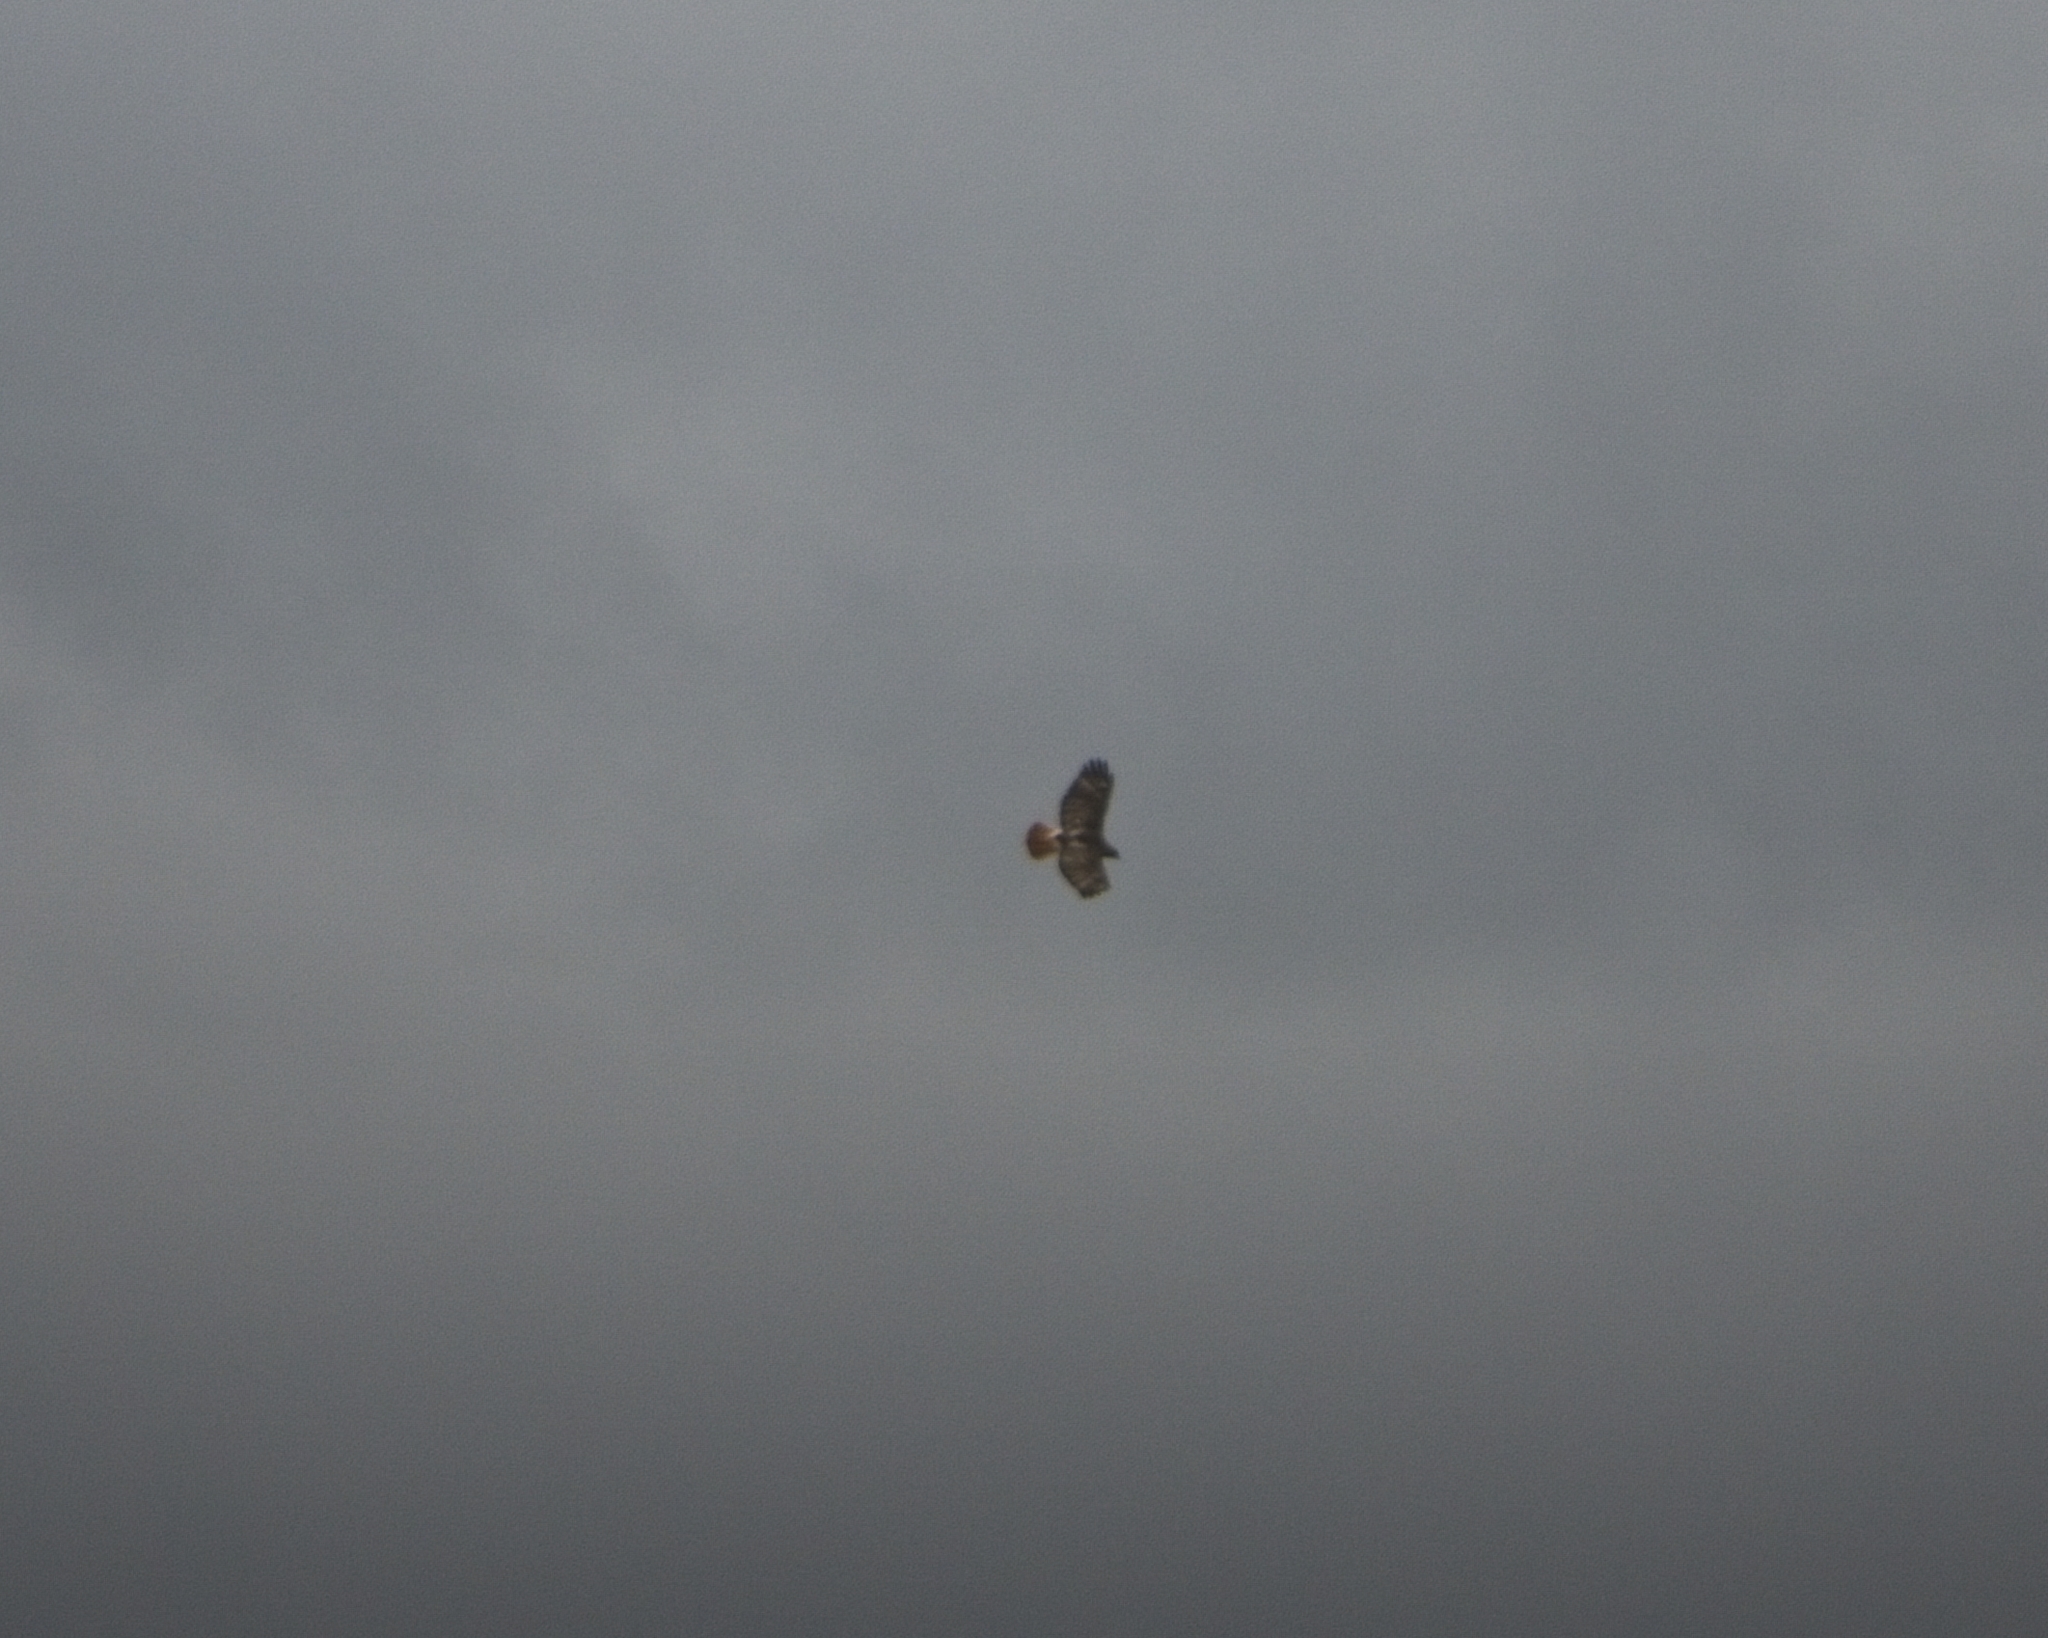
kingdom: Animalia
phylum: Chordata
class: Aves
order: Accipitriformes
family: Accipitridae
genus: Buteo
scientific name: Buteo jamaicensis
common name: Red-tailed hawk
